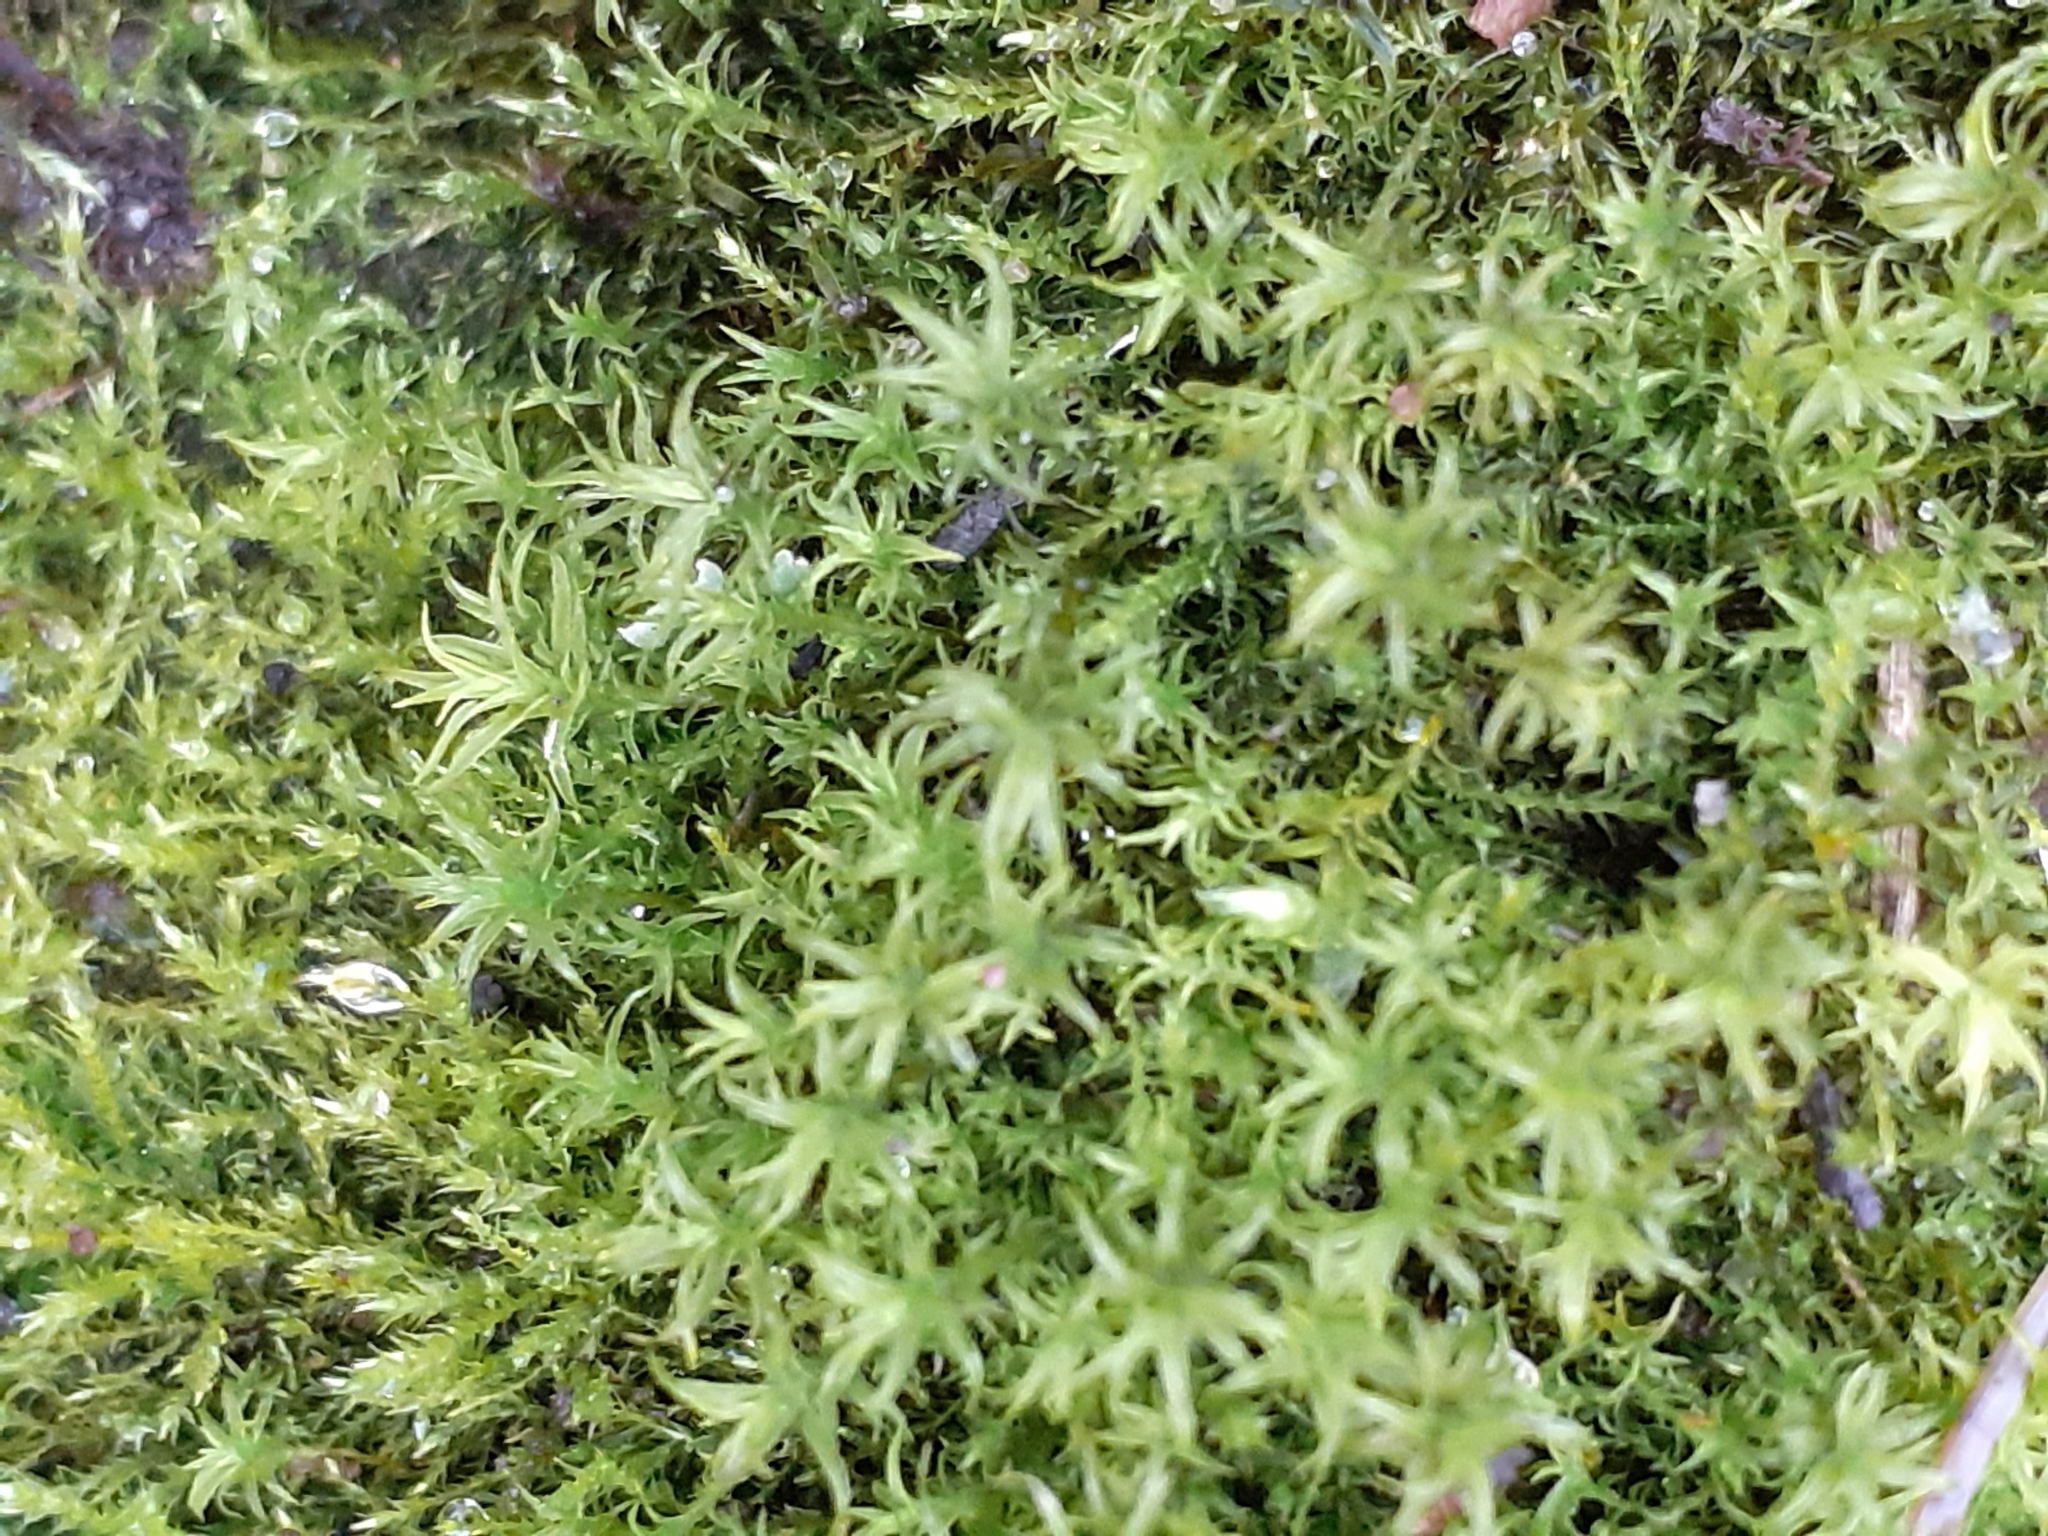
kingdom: Plantae
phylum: Bryophyta
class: Bryopsida
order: Pottiales
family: Pottiaceae
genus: Vinealobryum
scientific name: Vinealobryum insulanum
